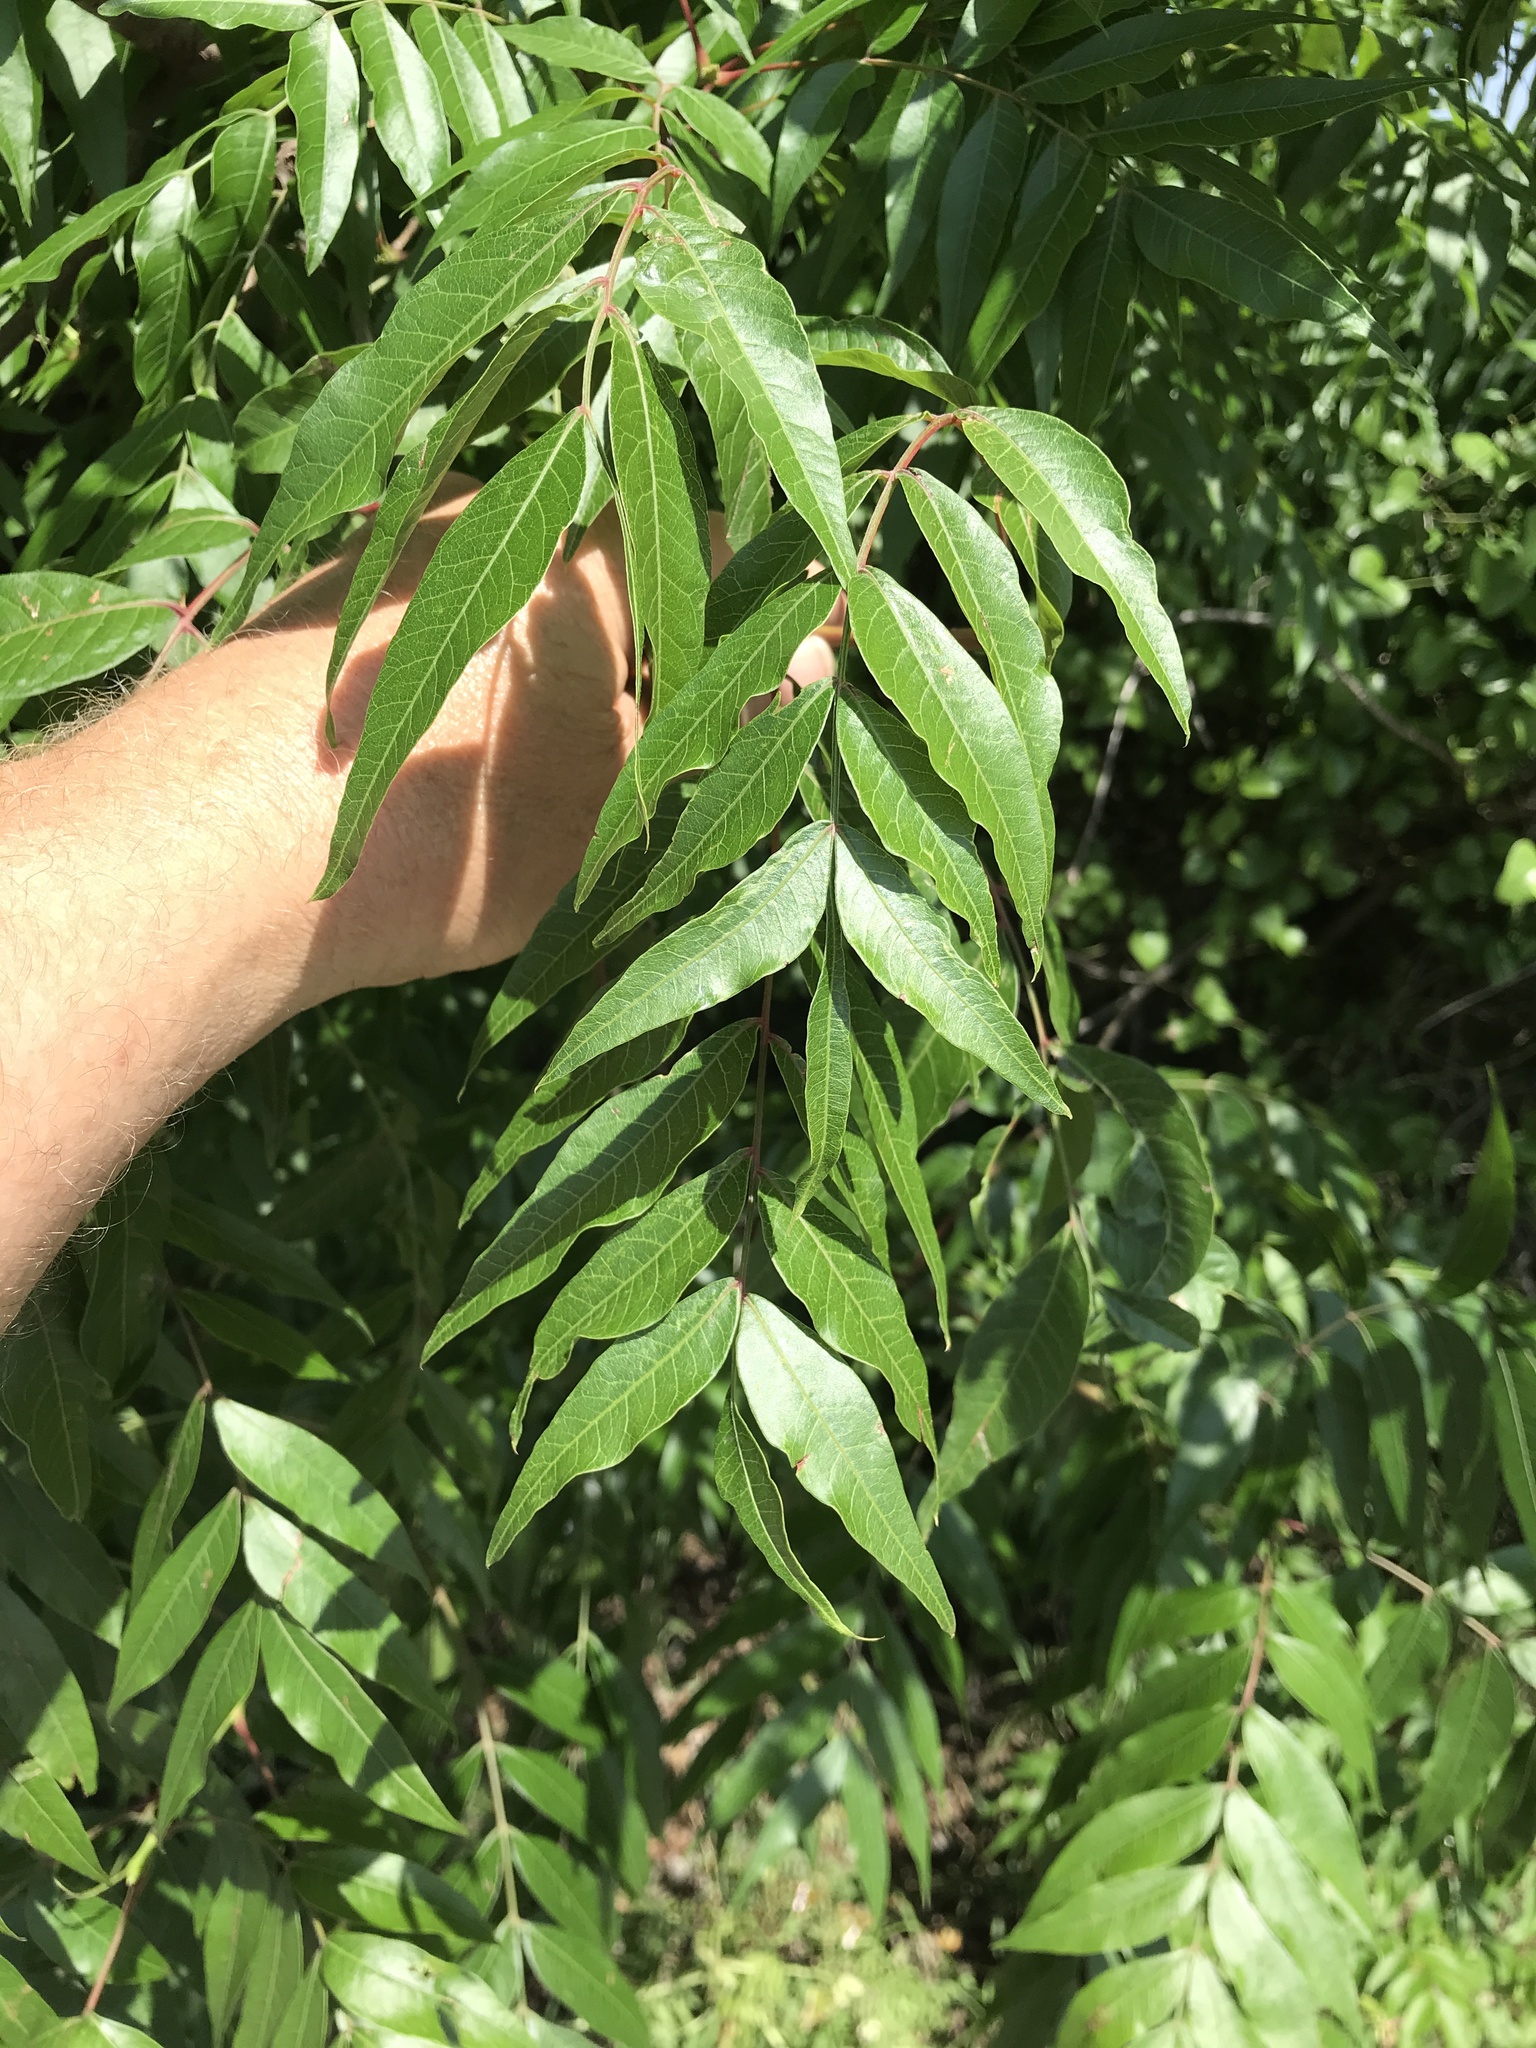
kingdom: Plantae
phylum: Tracheophyta
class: Magnoliopsida
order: Sapindales
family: Anacardiaceae
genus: Pistacia
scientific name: Pistacia chinensis
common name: Chinese pistache
